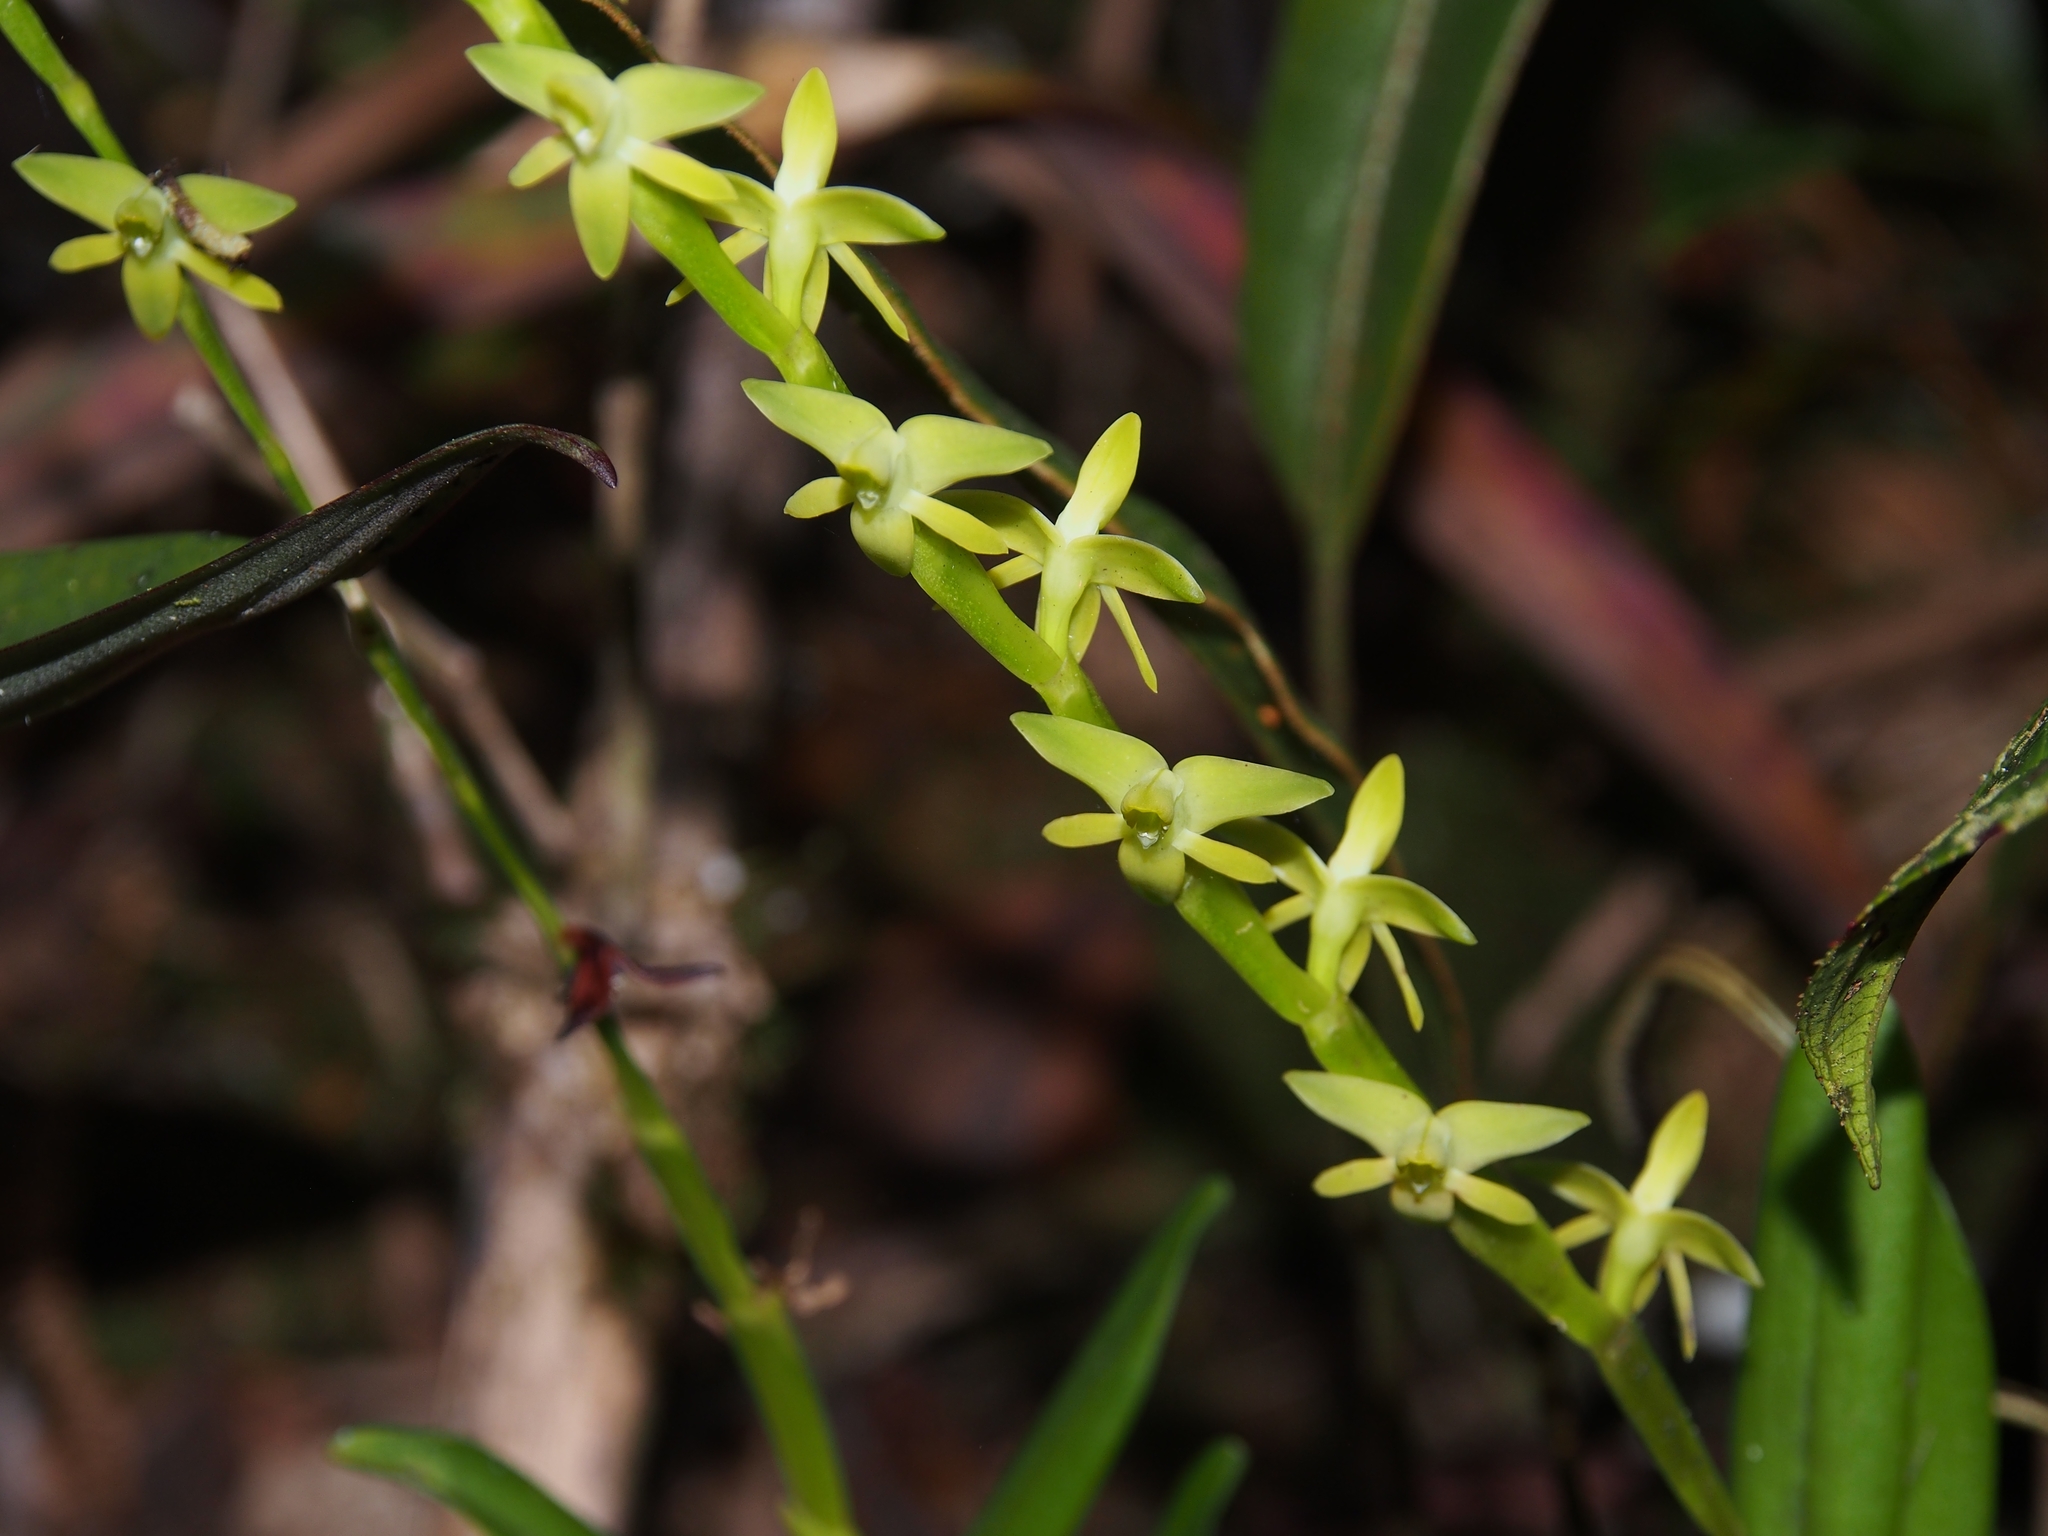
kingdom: Plantae
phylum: Tracheophyta
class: Liliopsida
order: Asparagales
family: Orchidaceae
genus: Epidendrum
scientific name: Epidendrum microanoglossum
